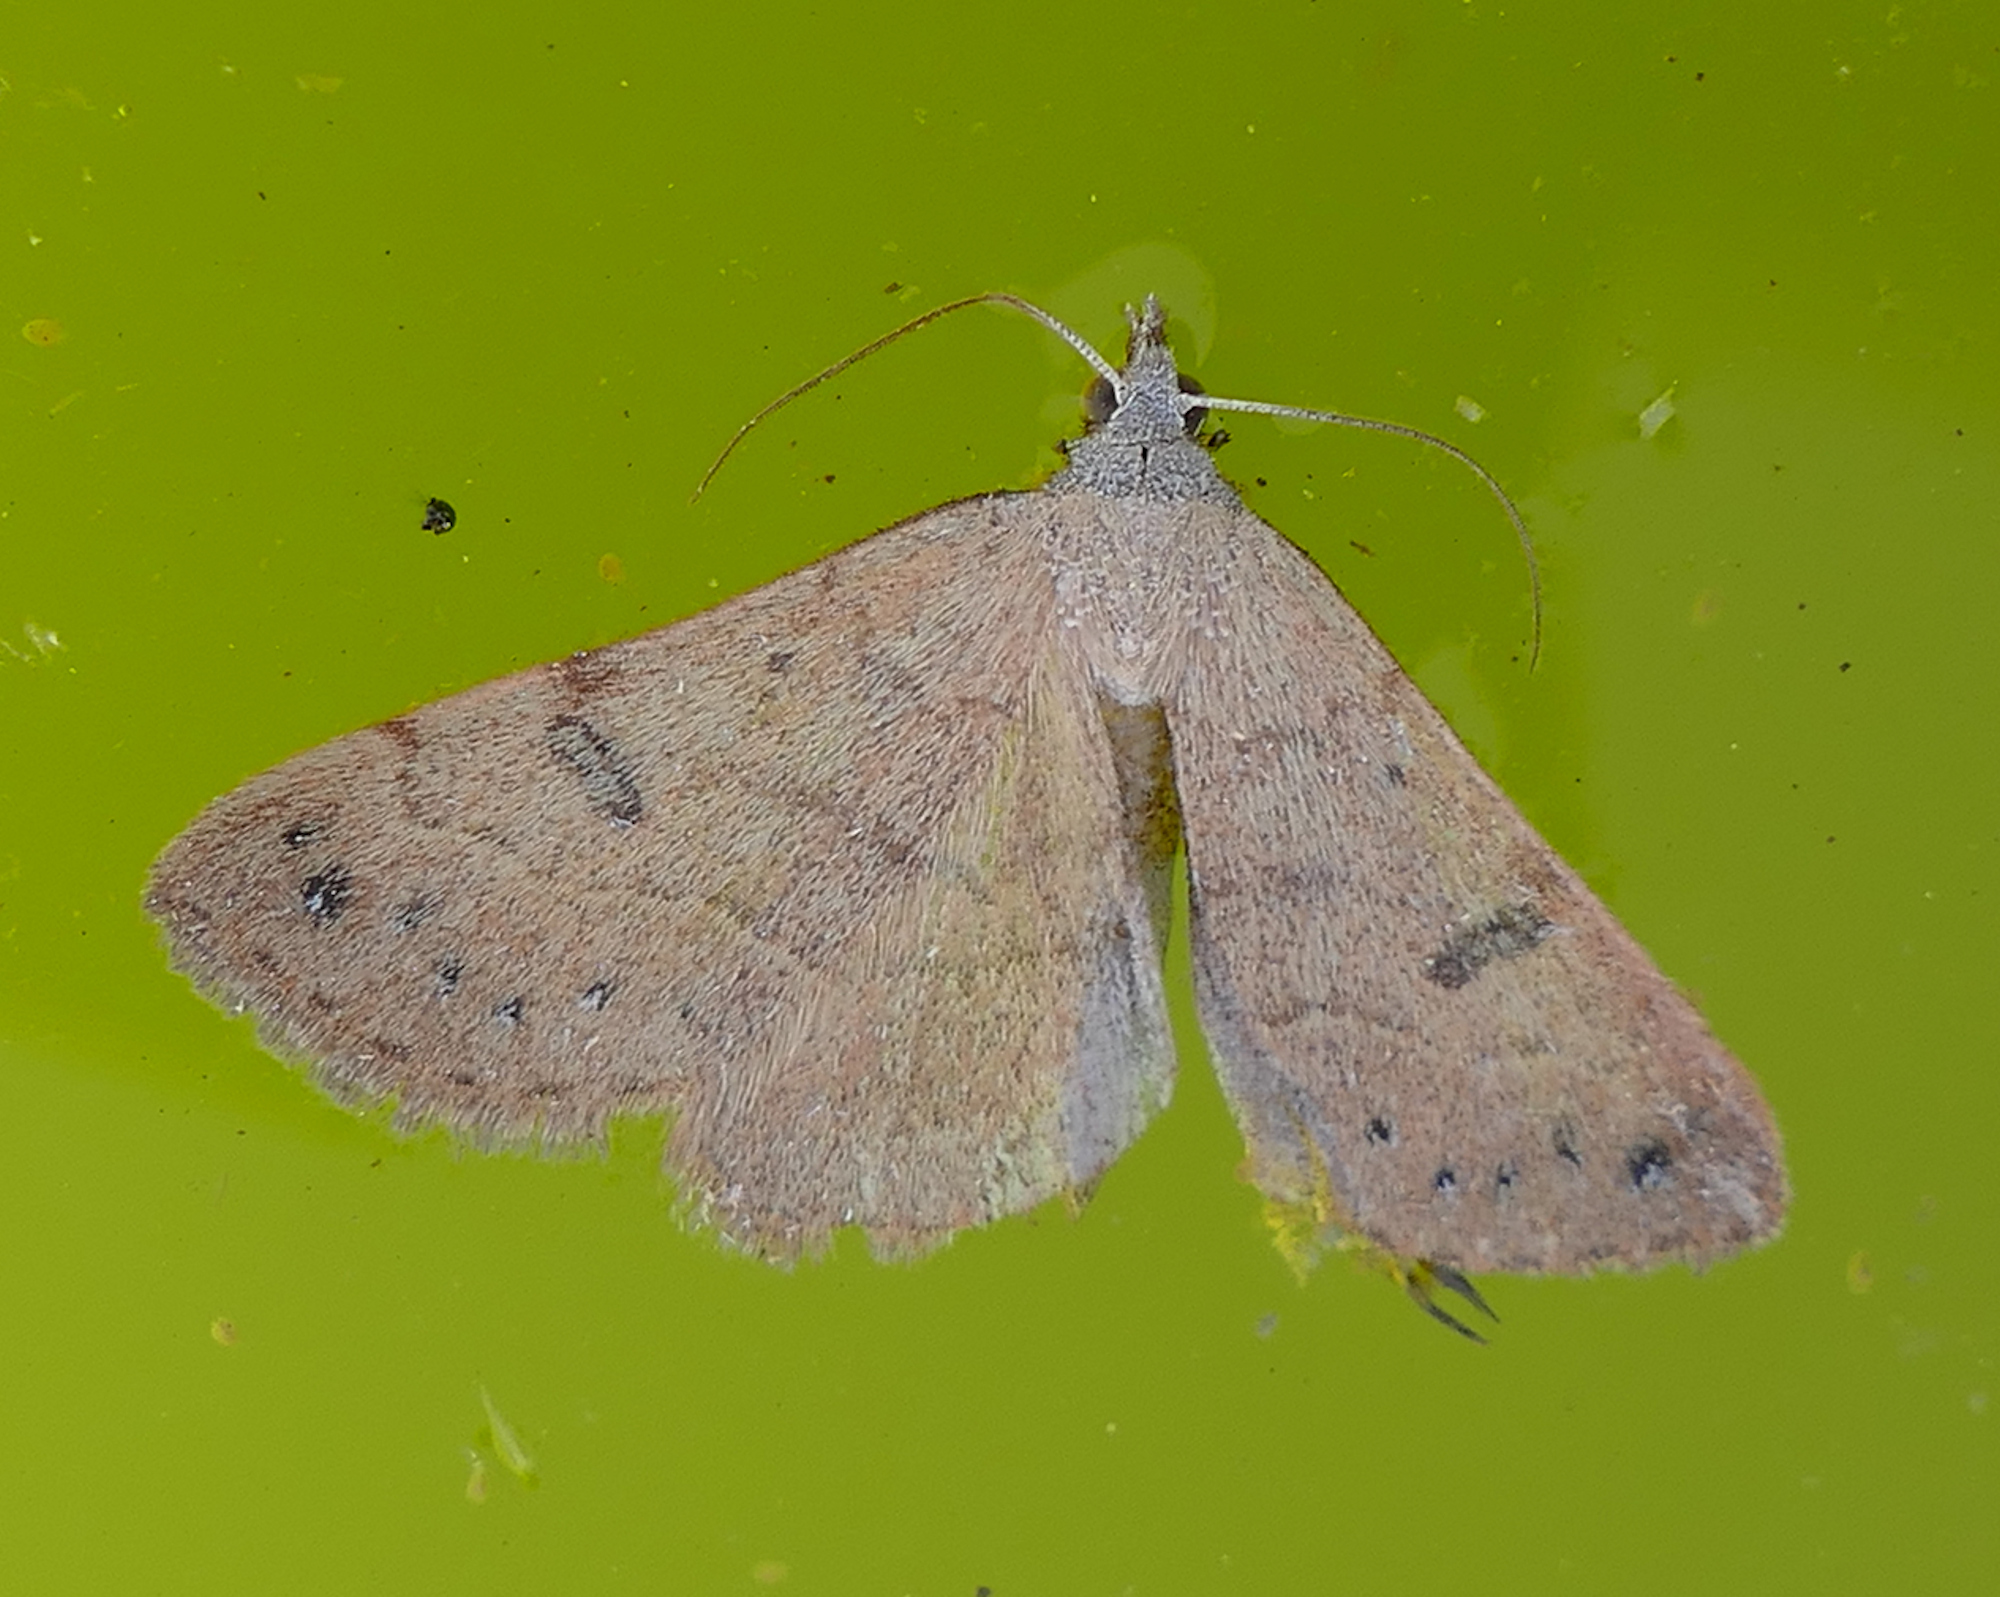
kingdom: Animalia
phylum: Arthropoda
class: Insecta
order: Lepidoptera
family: Erebidae
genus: Hemeroplanis
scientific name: Hemeroplanis punitalis
